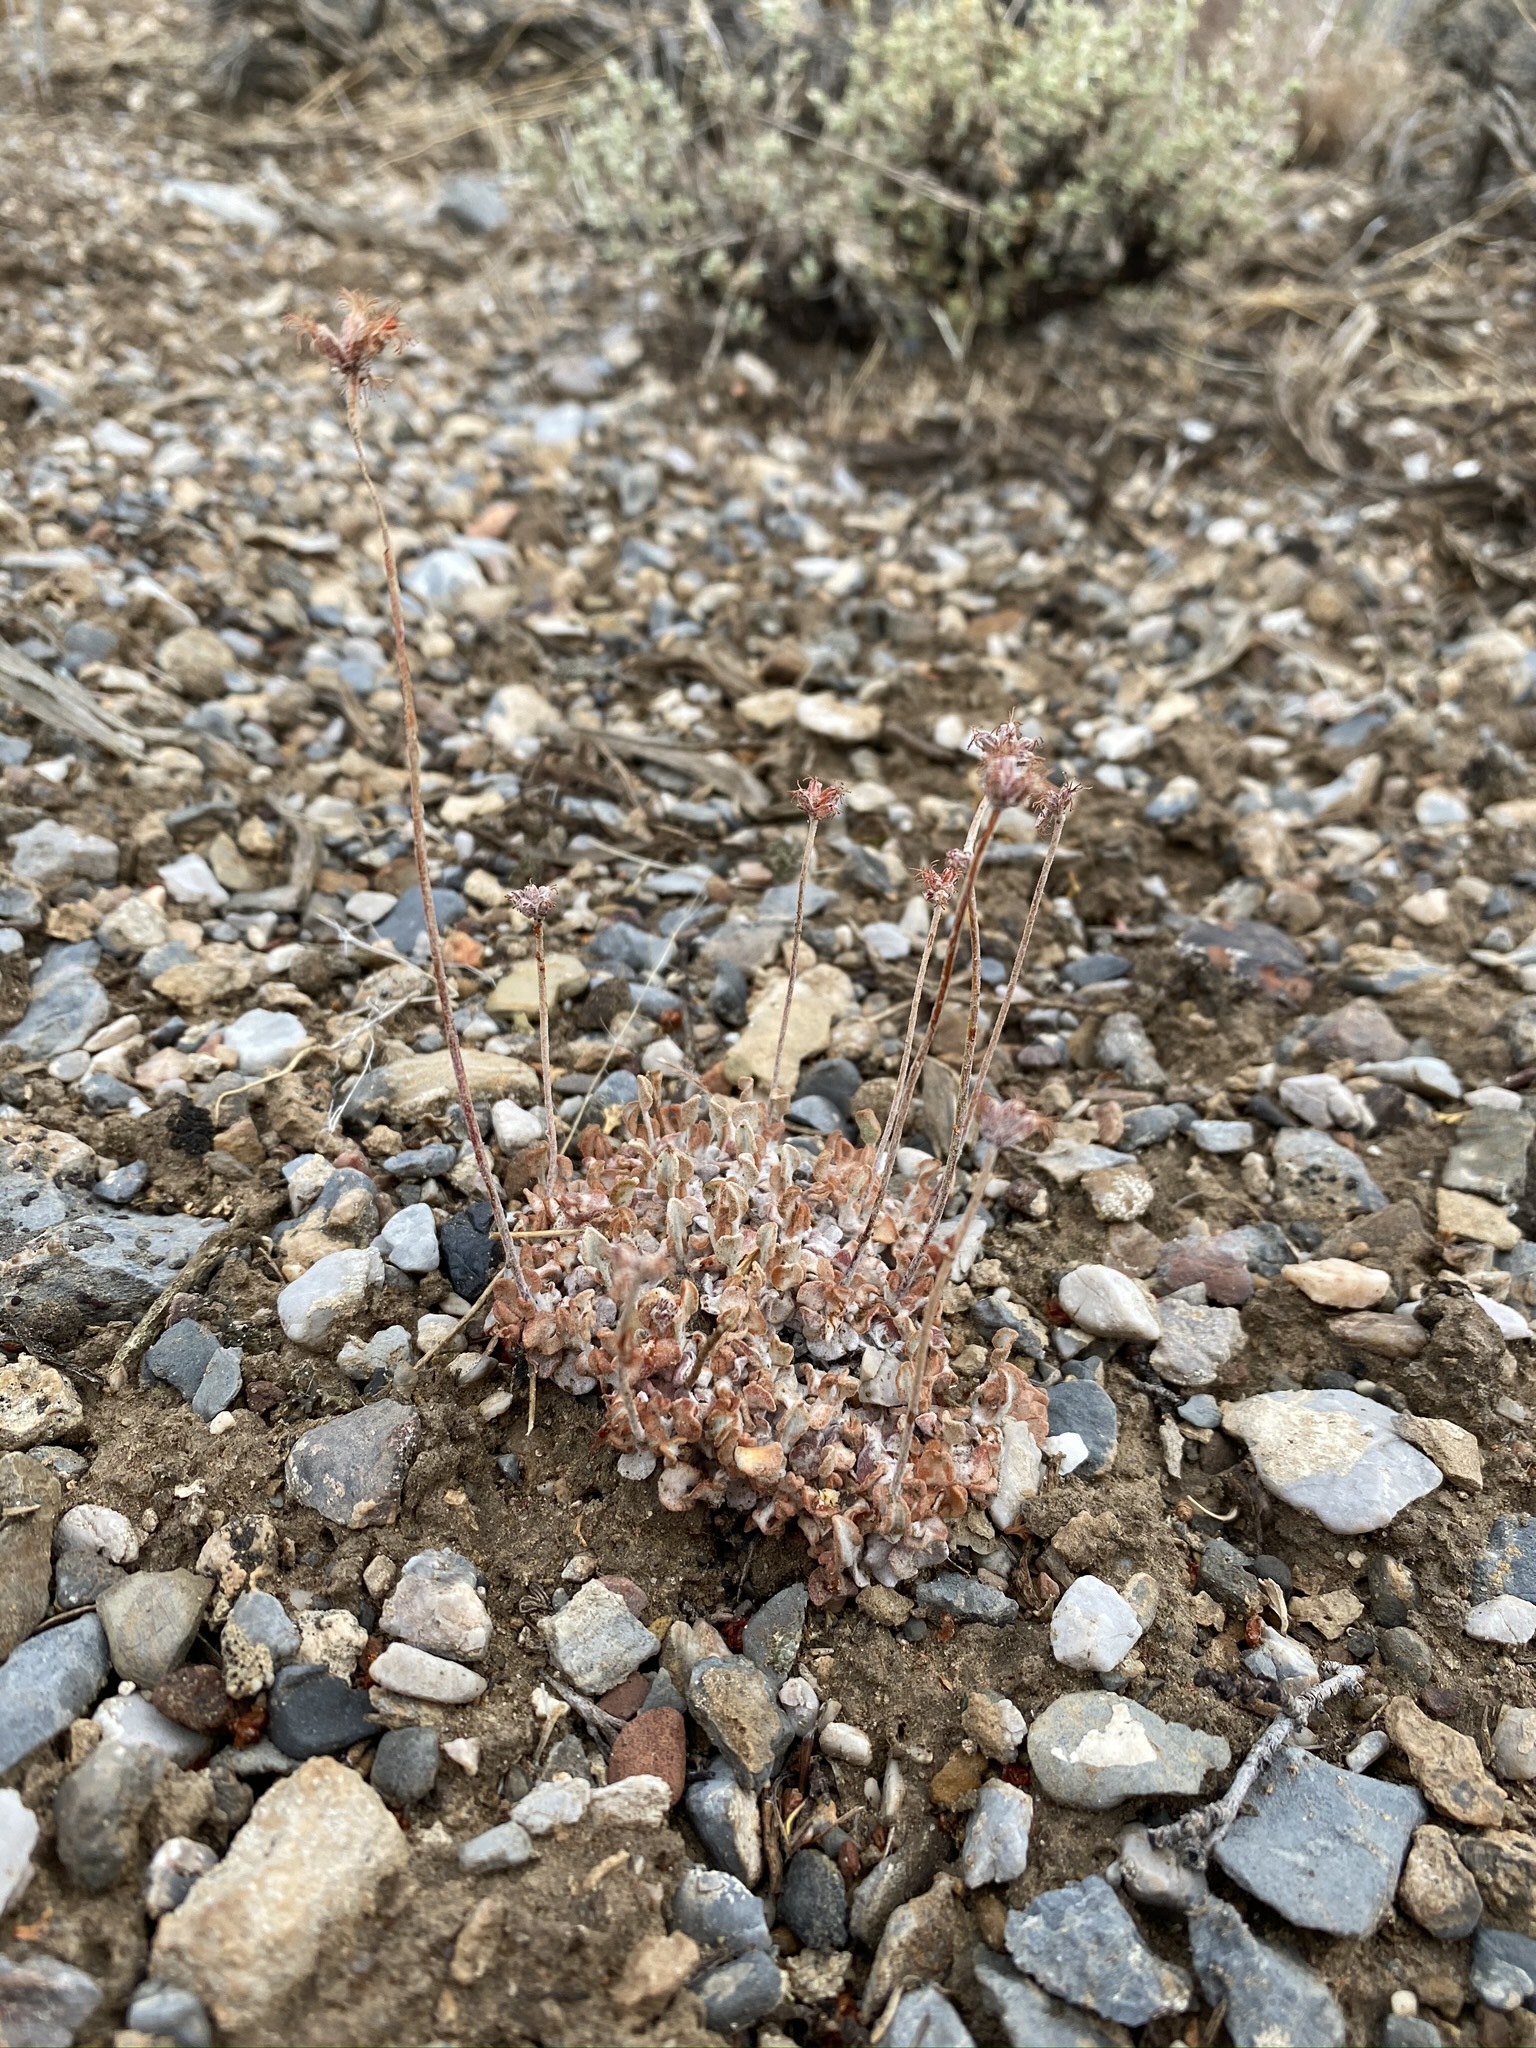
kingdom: Plantae
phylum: Tracheophyta
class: Magnoliopsida
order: Caryophyllales
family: Polygonaceae
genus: Eriogonum
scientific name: Eriogonum ovalifolium
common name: Cushion buckwheat
